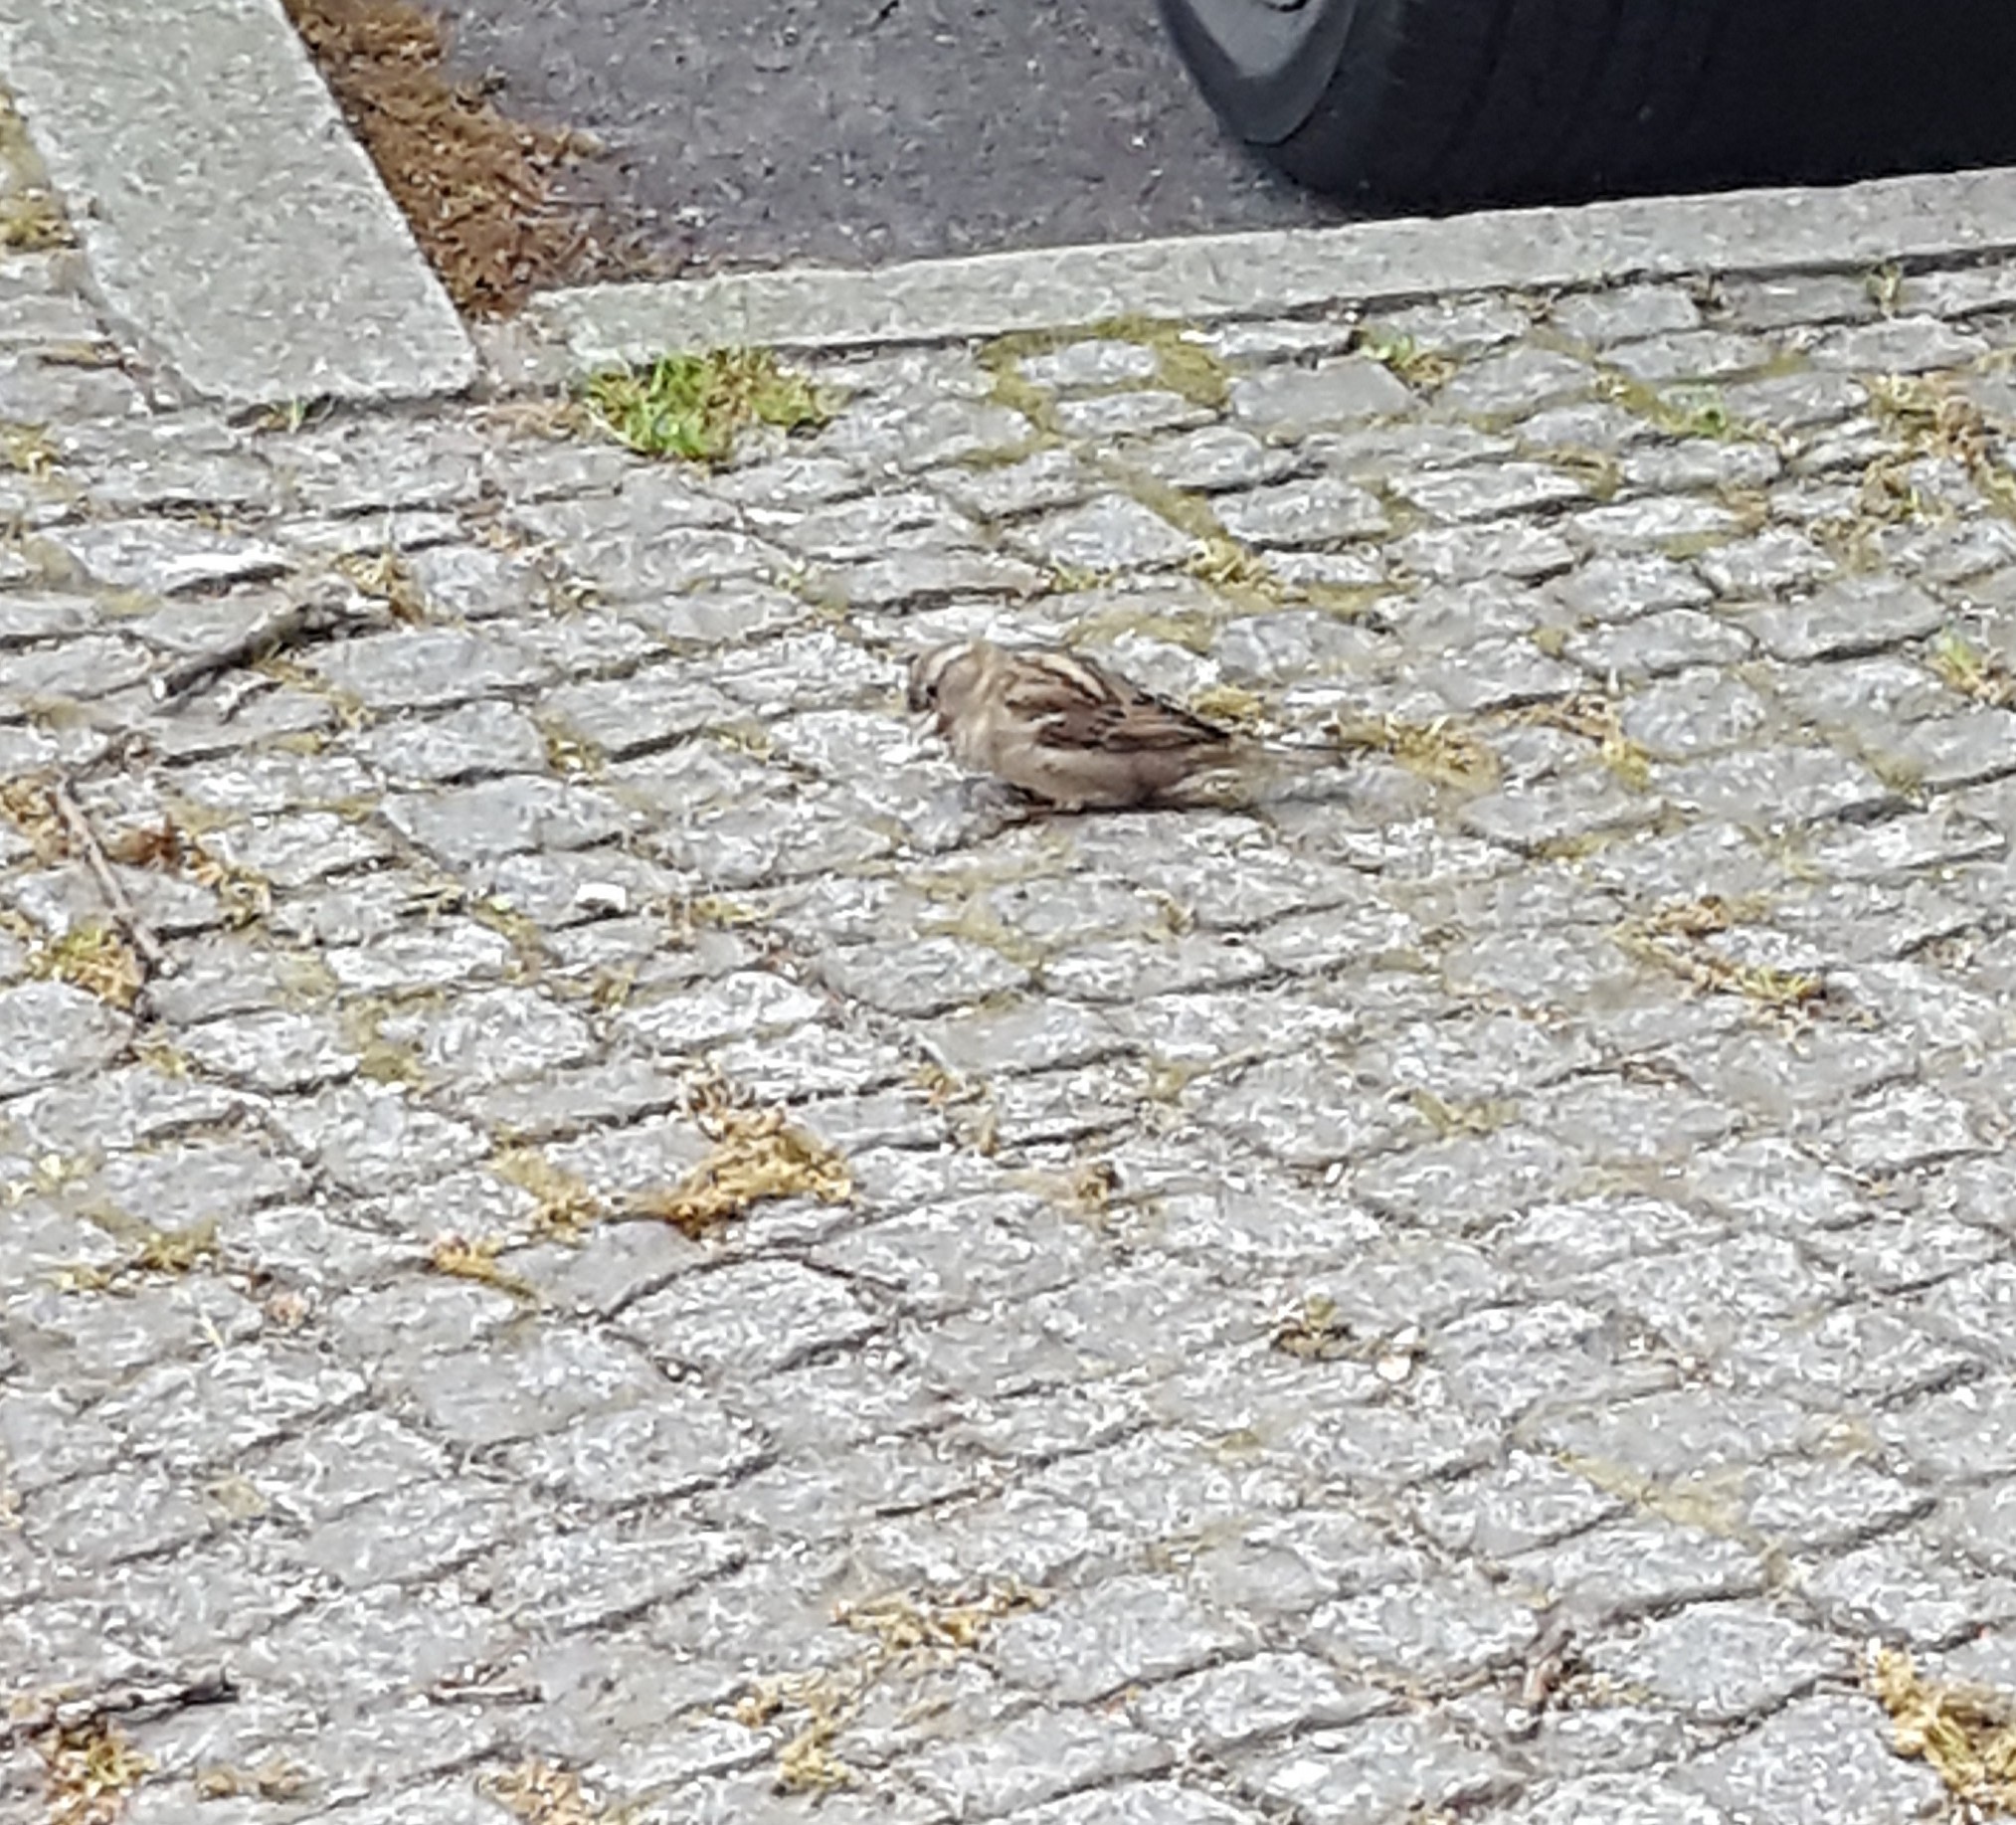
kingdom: Animalia
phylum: Chordata
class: Aves
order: Passeriformes
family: Passeridae
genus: Passer
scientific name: Passer domesticus
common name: House sparrow
